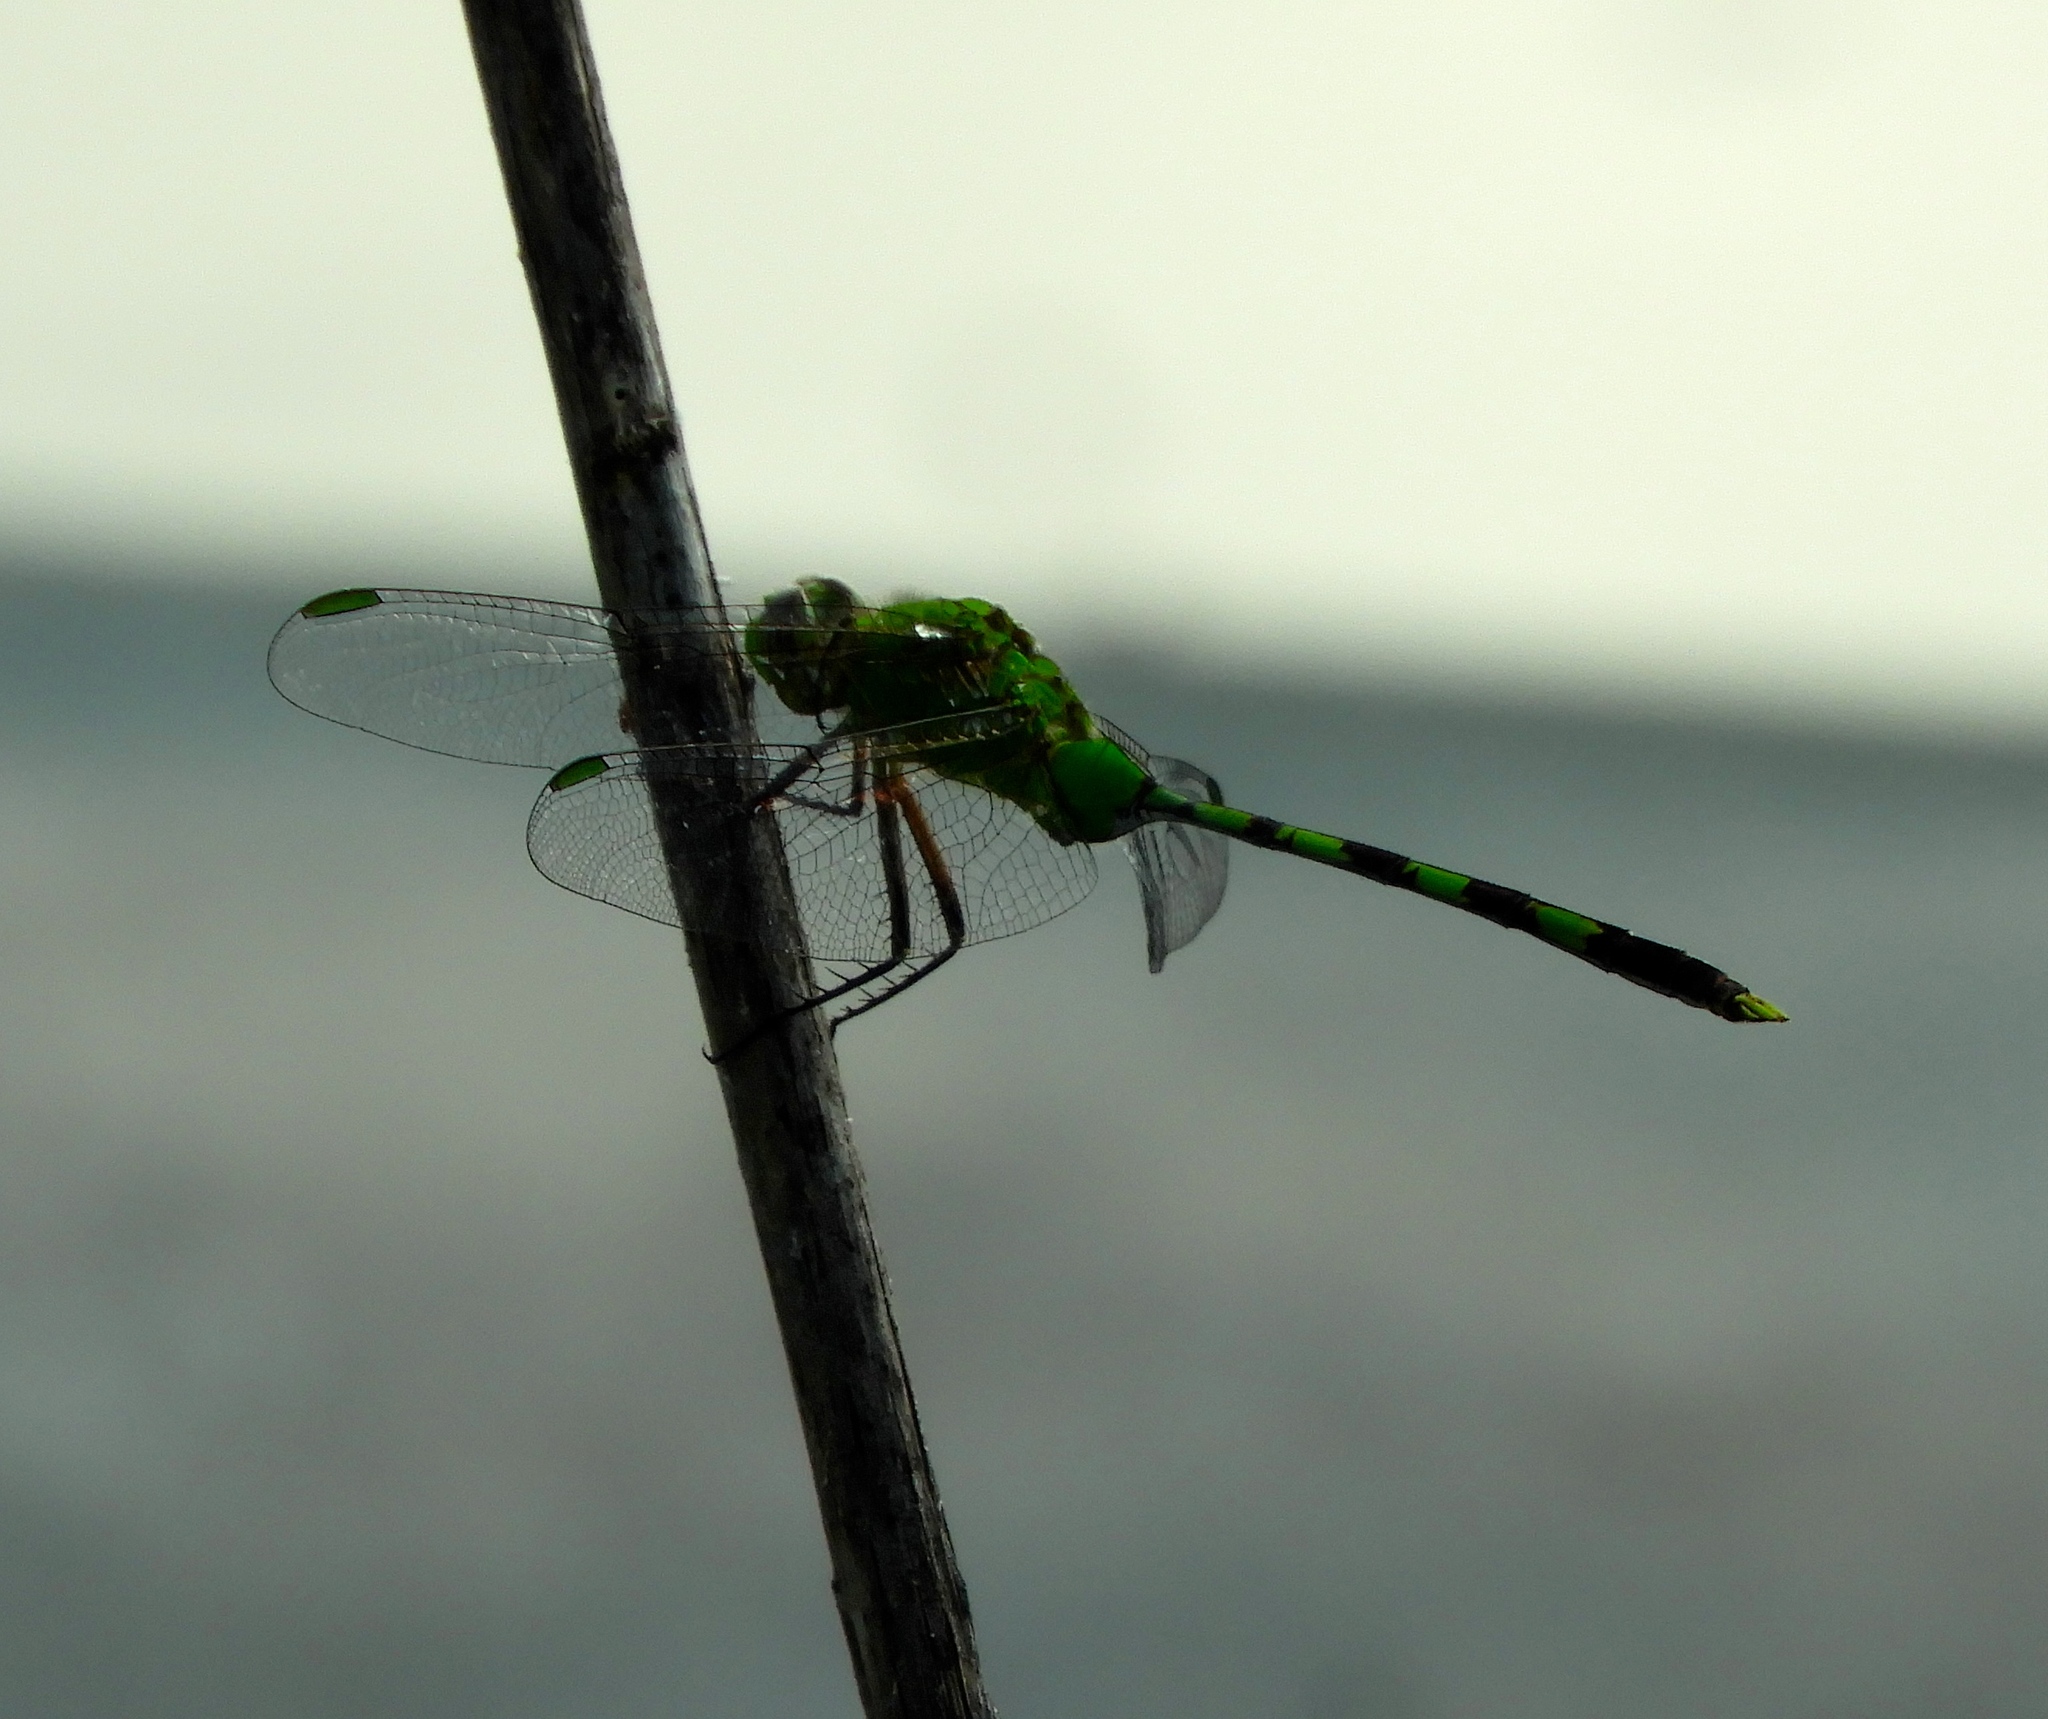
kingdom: Animalia
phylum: Arthropoda
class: Insecta
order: Odonata
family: Libellulidae
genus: Erythemis
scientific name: Erythemis vesiculosa
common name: Great pondhawk
